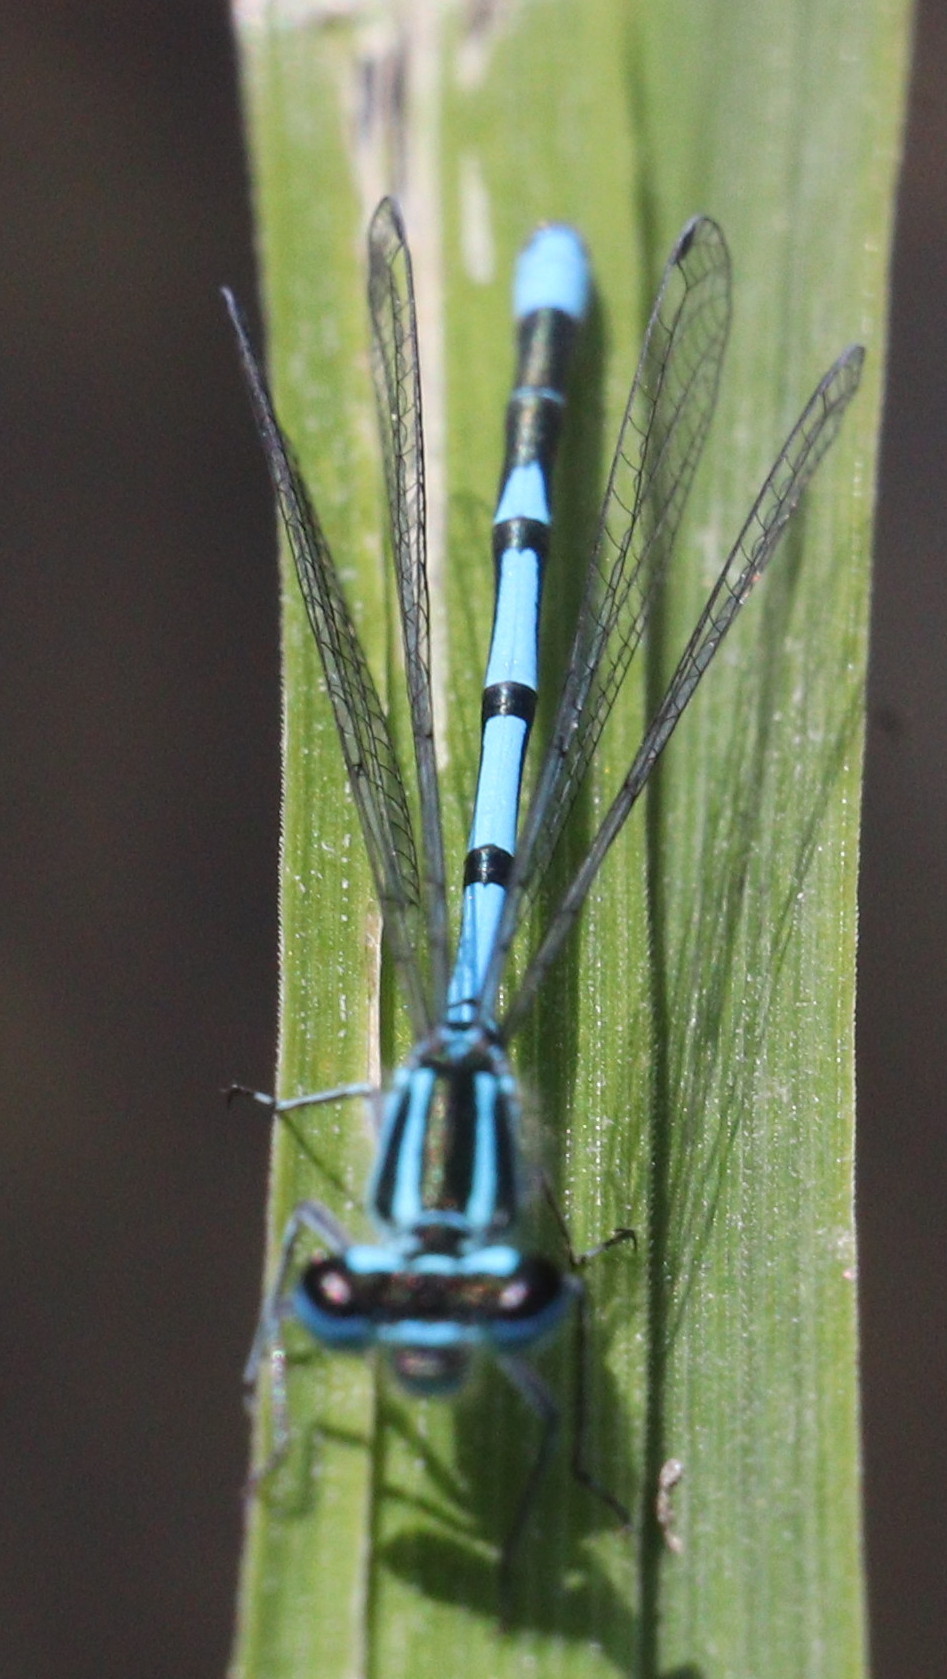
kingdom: Animalia
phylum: Arthropoda
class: Insecta
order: Odonata
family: Coenagrionidae
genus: Coenagrion
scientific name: Coenagrion puella
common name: Azure damselfly
